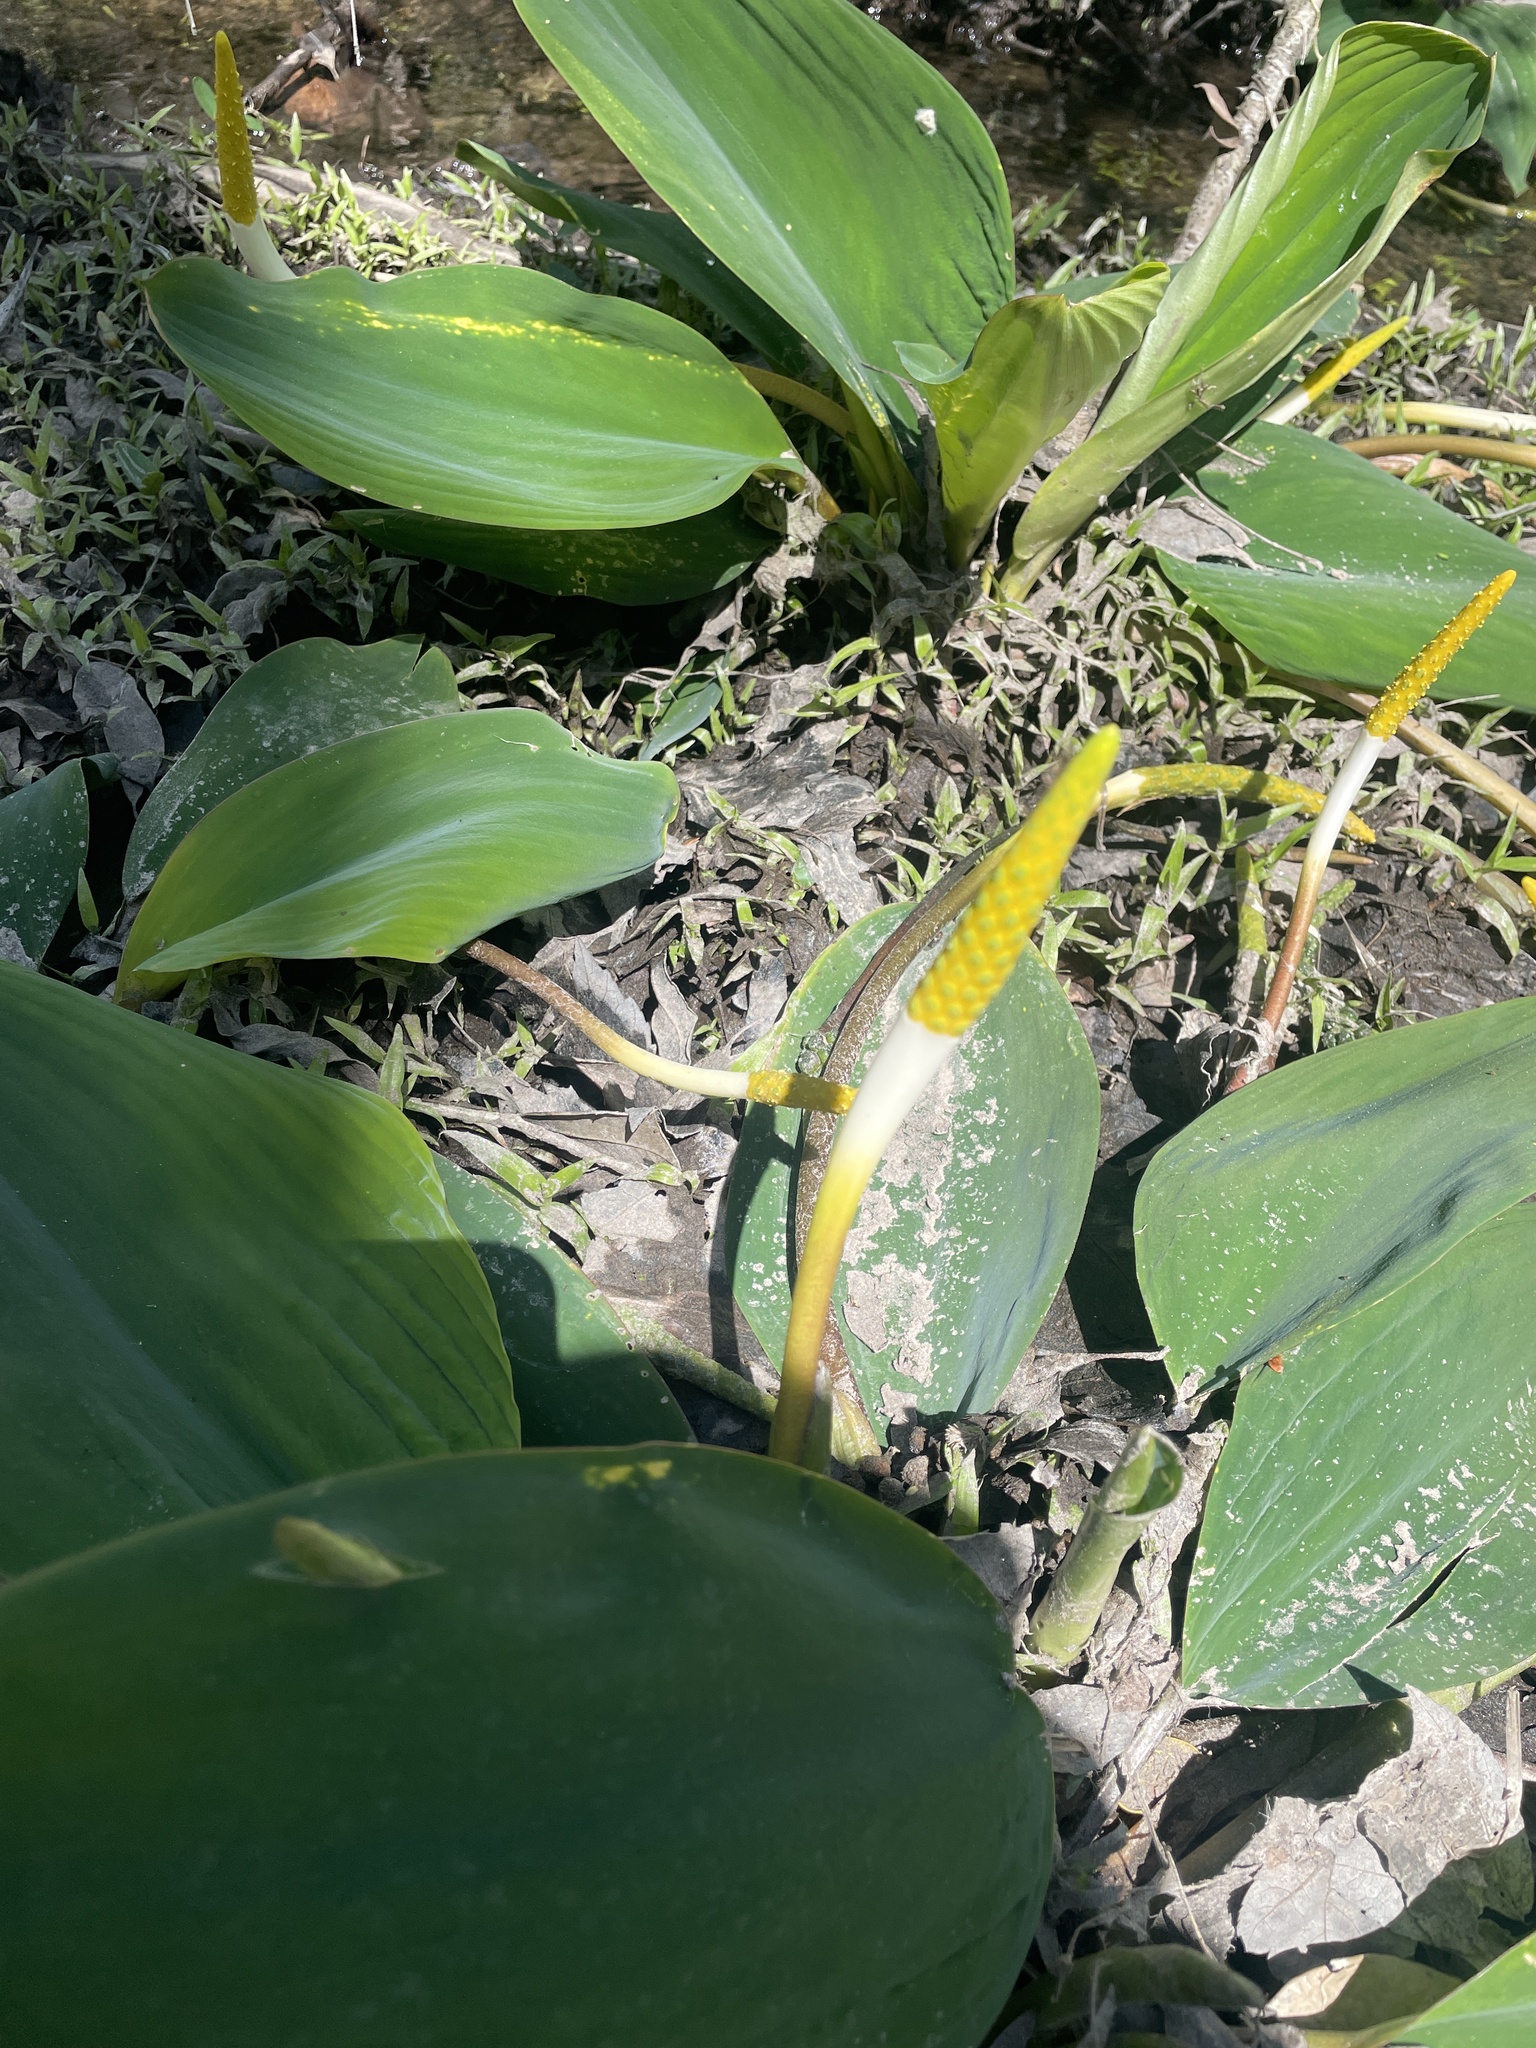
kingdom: Plantae
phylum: Tracheophyta
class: Liliopsida
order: Alismatales
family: Araceae
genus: Orontium
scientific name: Orontium aquaticum
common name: Golden-club
